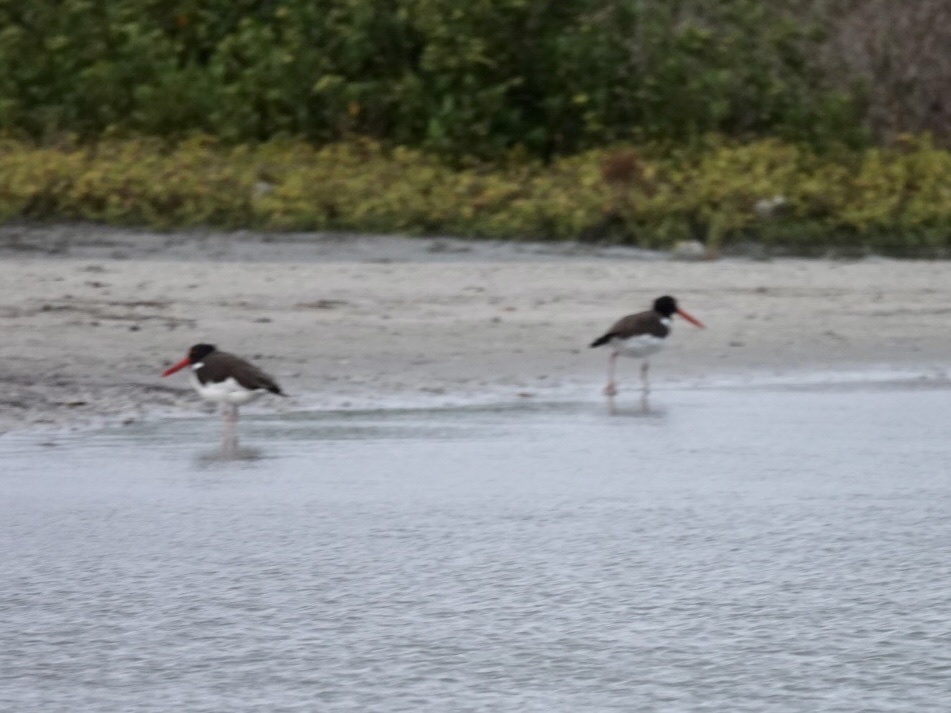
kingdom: Animalia
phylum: Chordata
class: Aves
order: Charadriiformes
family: Haematopodidae
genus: Haematopus
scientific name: Haematopus palliatus
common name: American oystercatcher
